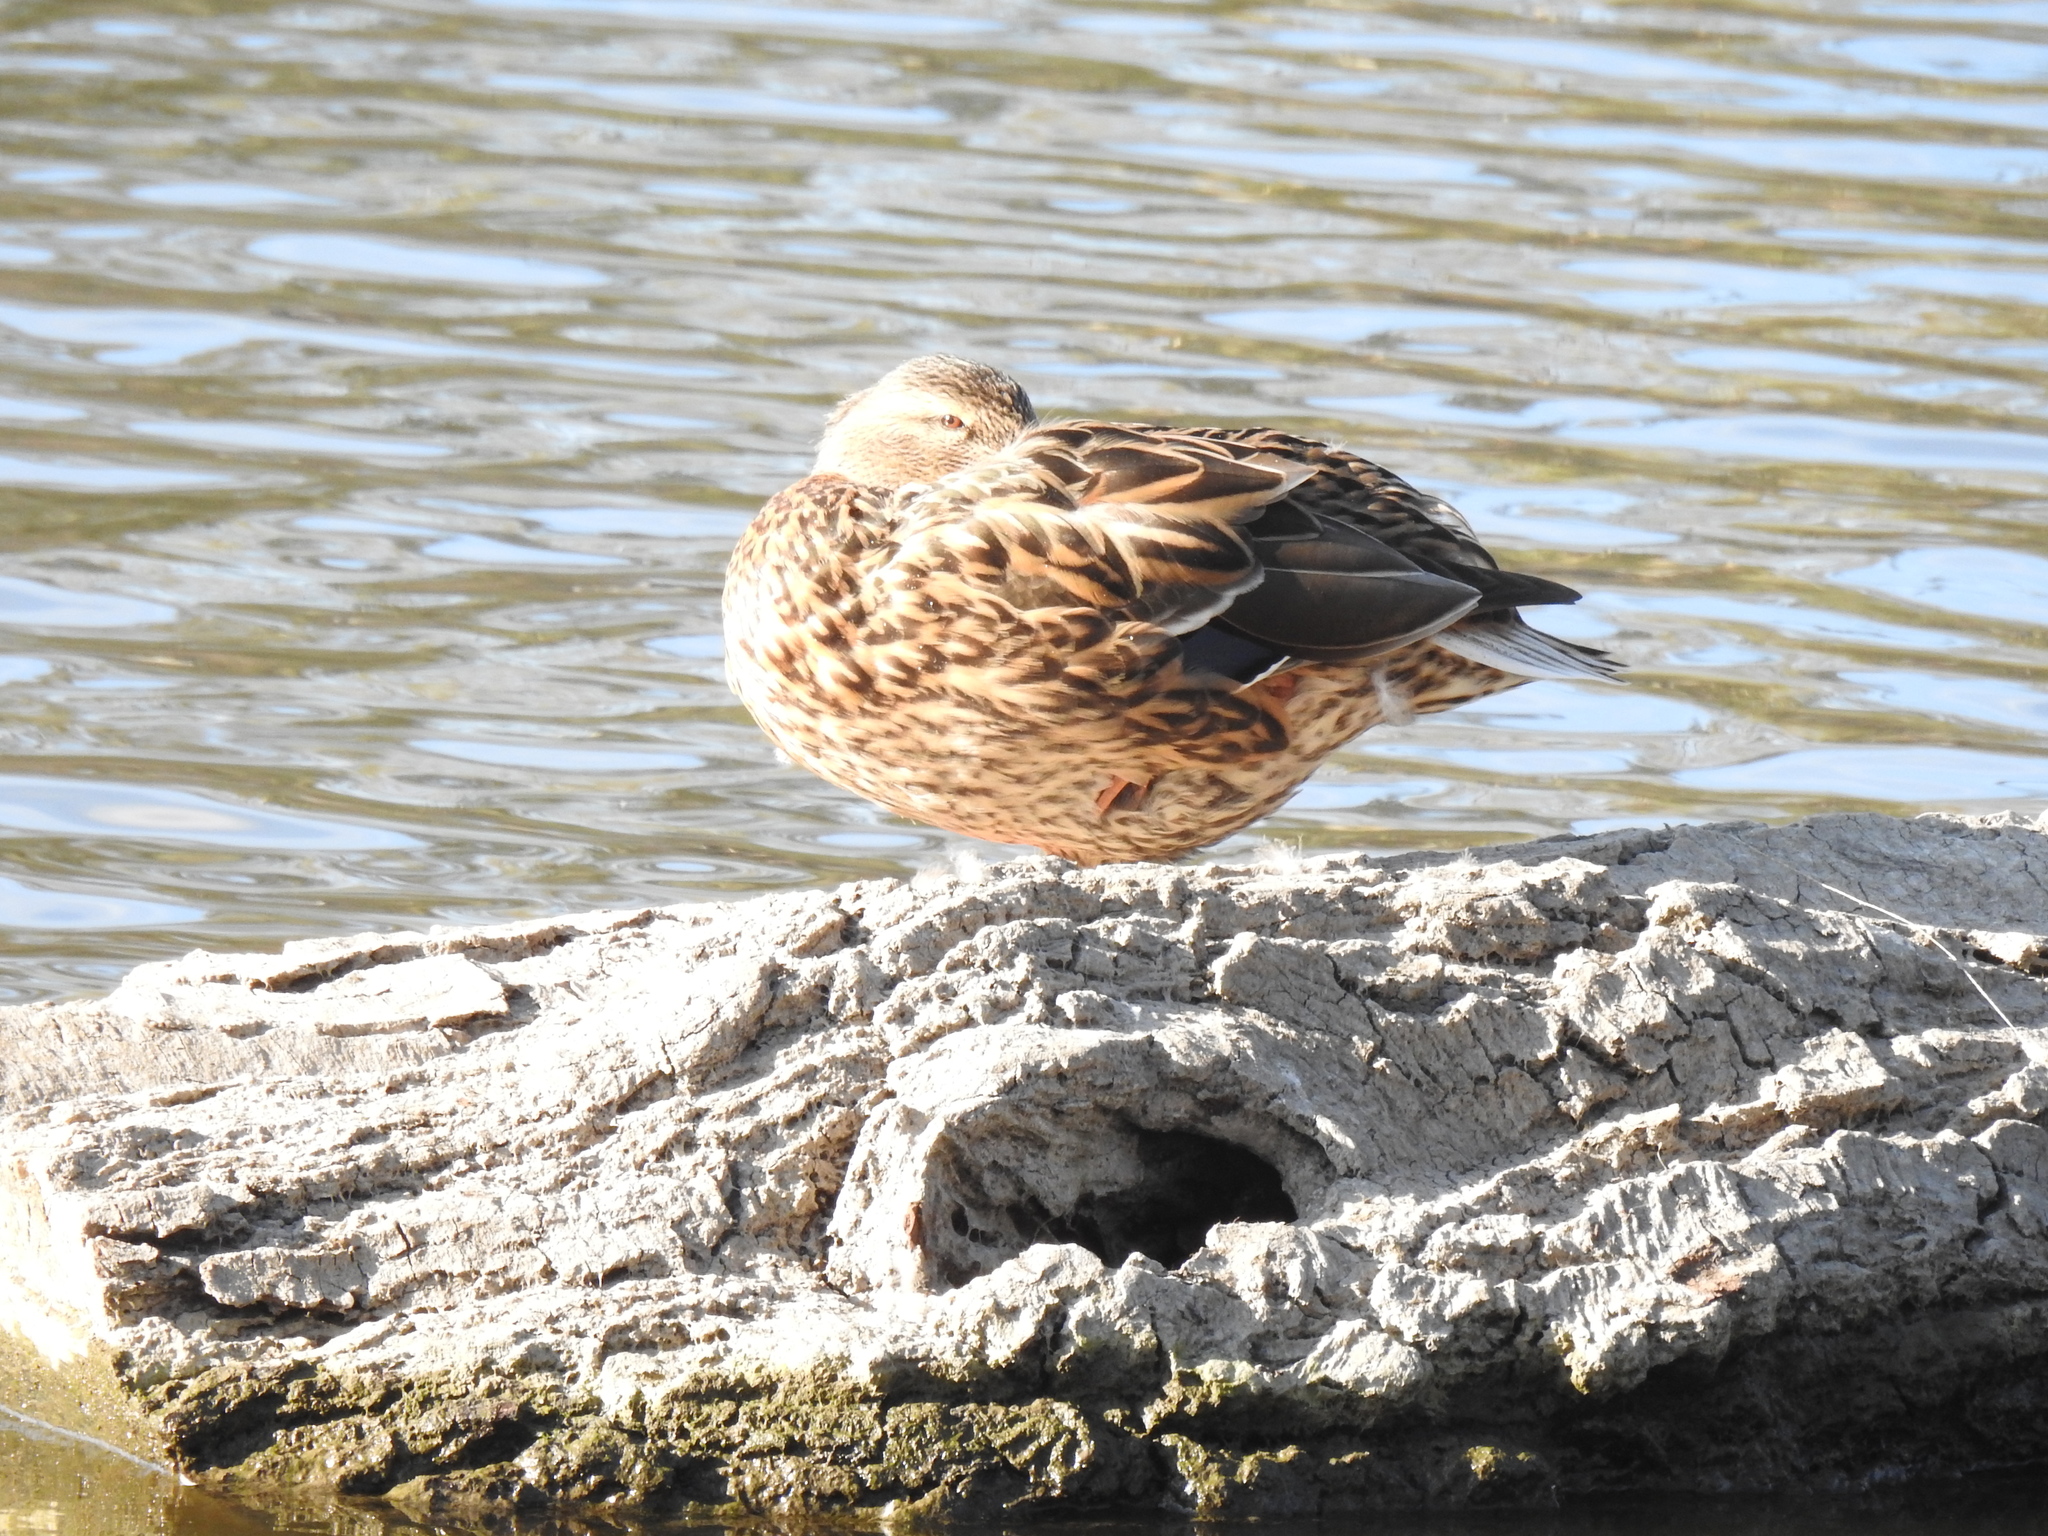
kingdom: Animalia
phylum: Chordata
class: Aves
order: Anseriformes
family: Anatidae
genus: Anas
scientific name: Anas platyrhynchos
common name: Mallard
